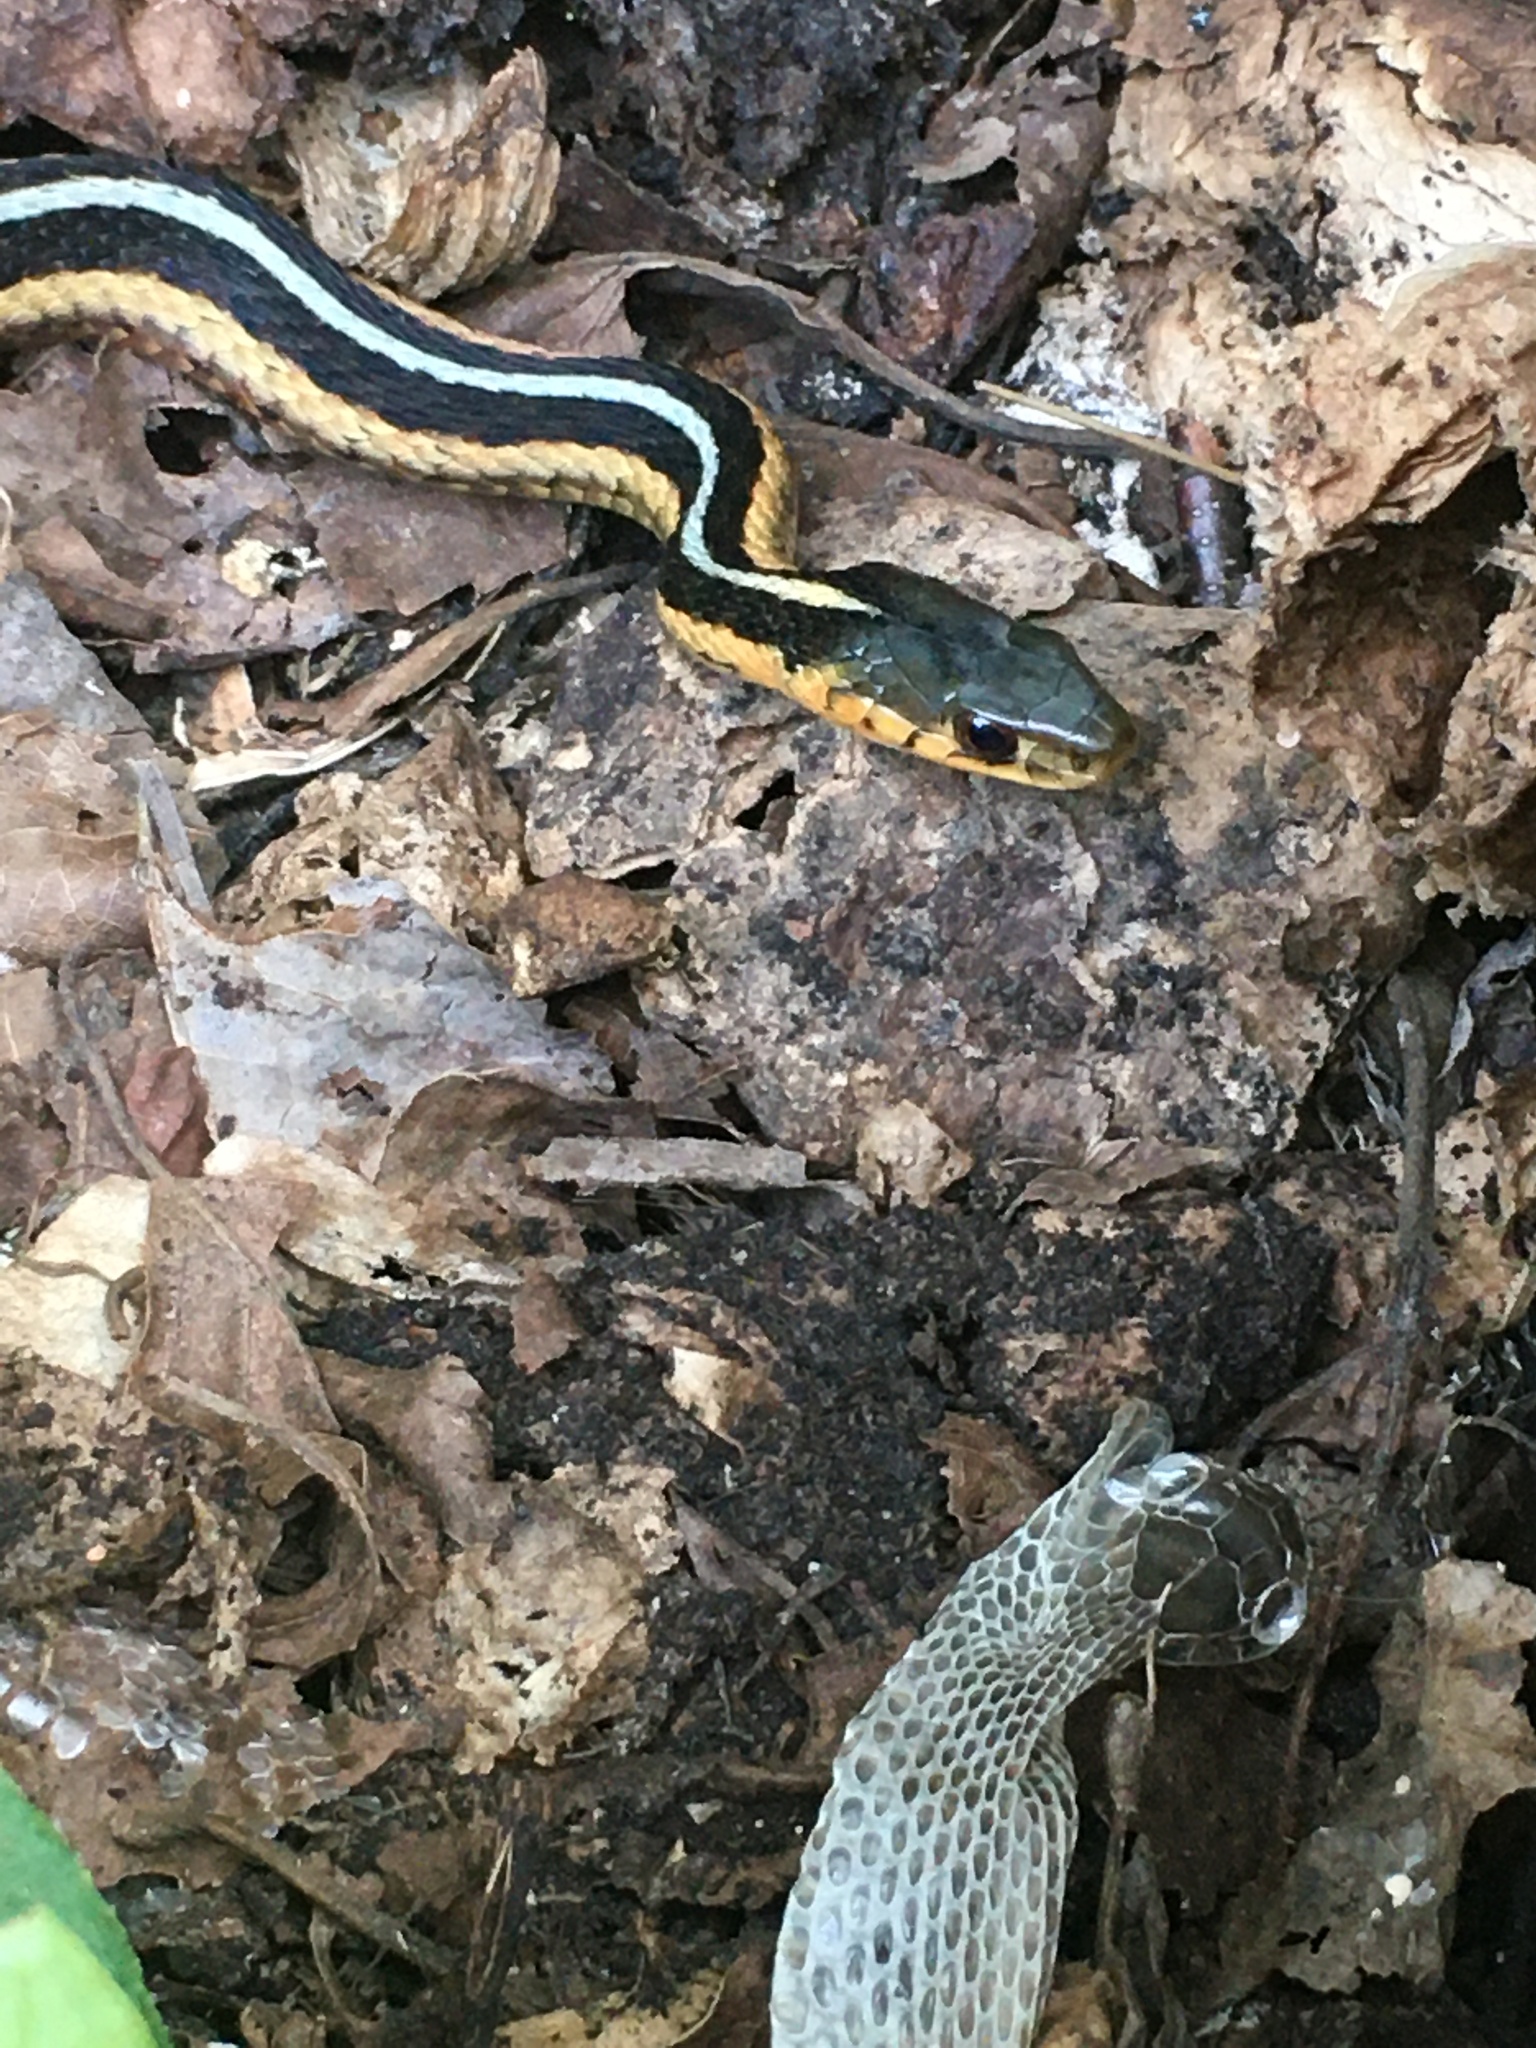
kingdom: Animalia
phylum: Chordata
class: Squamata
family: Colubridae
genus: Thamnophis
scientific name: Thamnophis sirtalis
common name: Common garter snake
